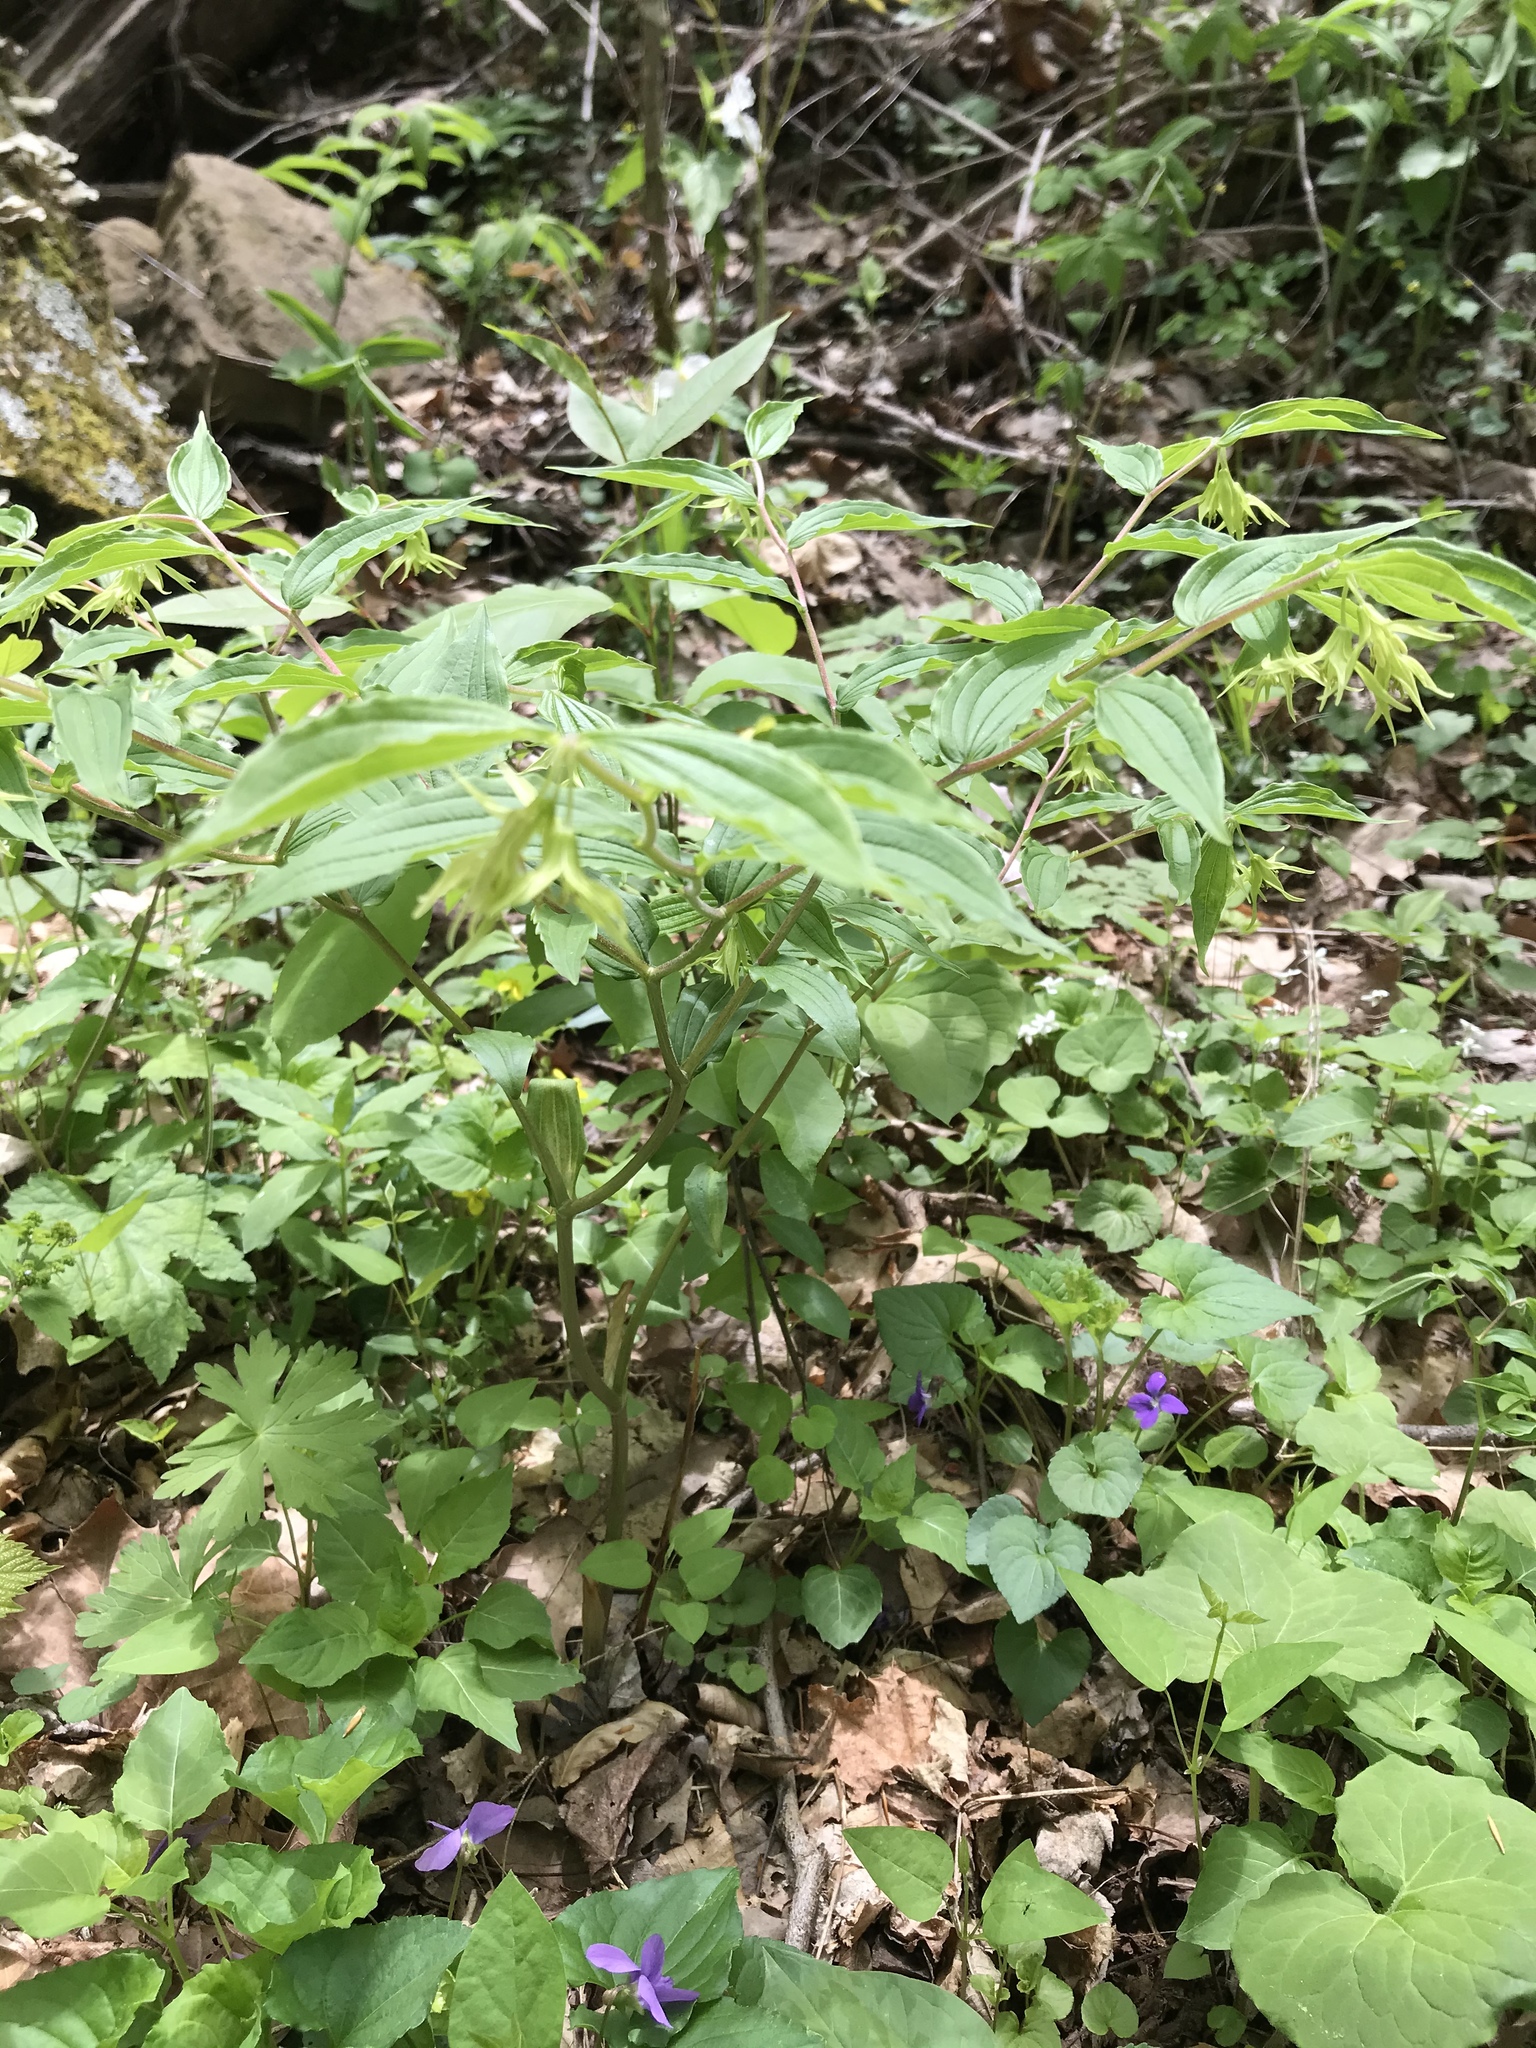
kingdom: Plantae
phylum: Tracheophyta
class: Liliopsida
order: Liliales
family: Liliaceae
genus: Prosartes
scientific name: Prosartes lanuginosa
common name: Hairy mandarin
